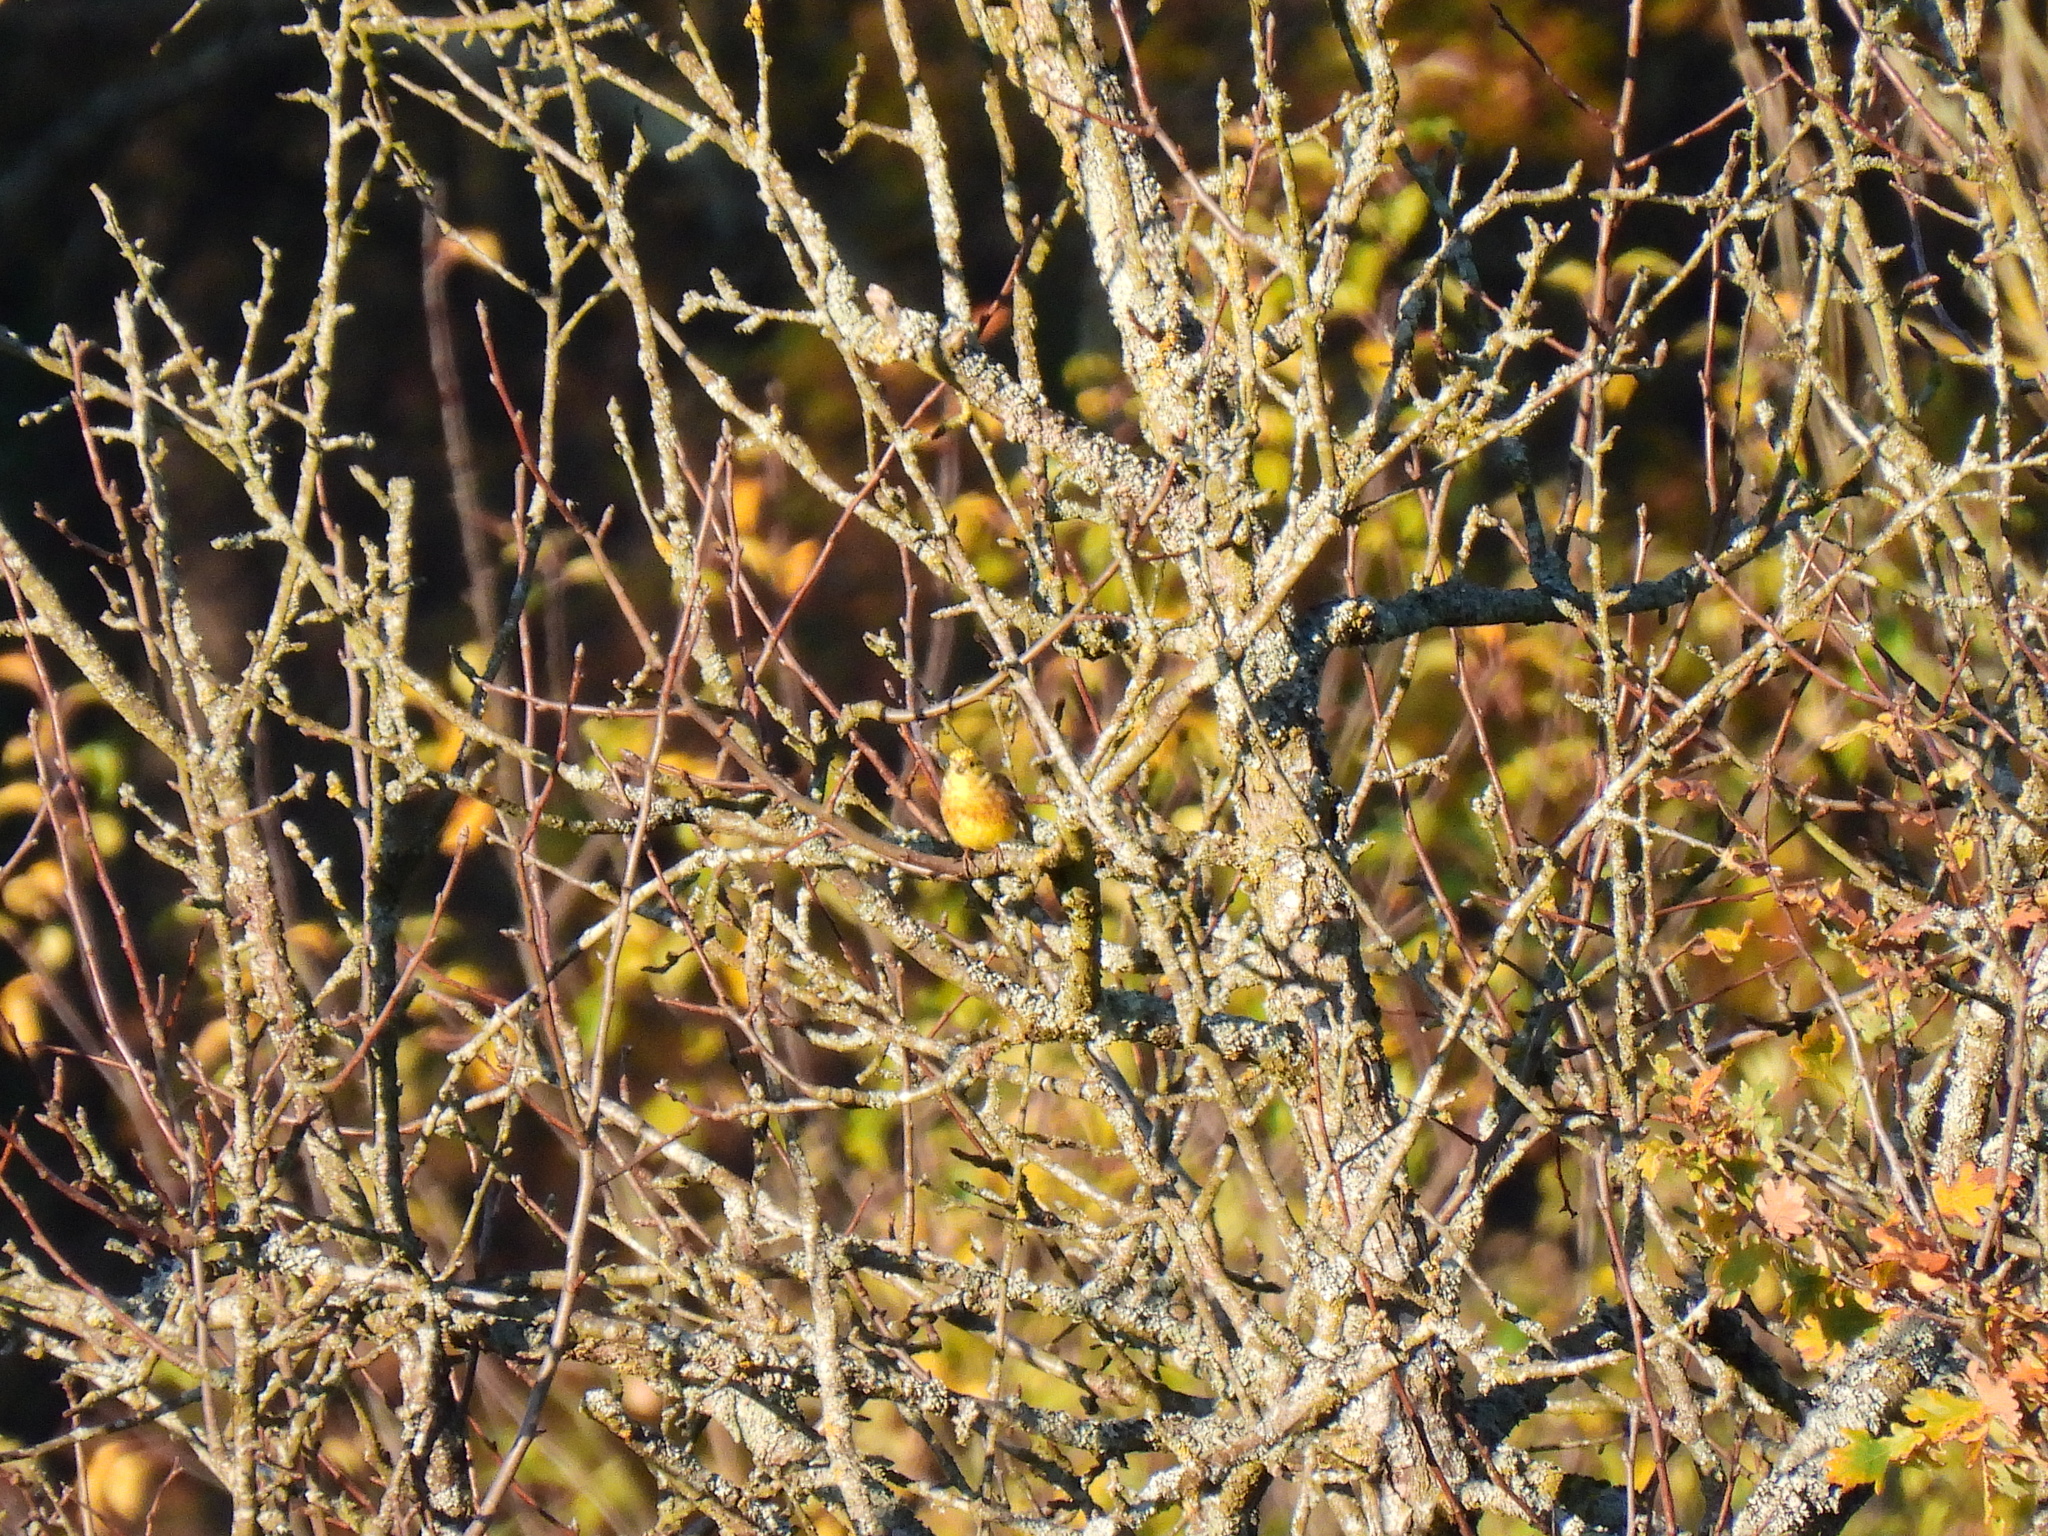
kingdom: Animalia
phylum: Chordata
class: Aves
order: Passeriformes
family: Emberizidae
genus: Emberiza
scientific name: Emberiza citrinella
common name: Yellowhammer
